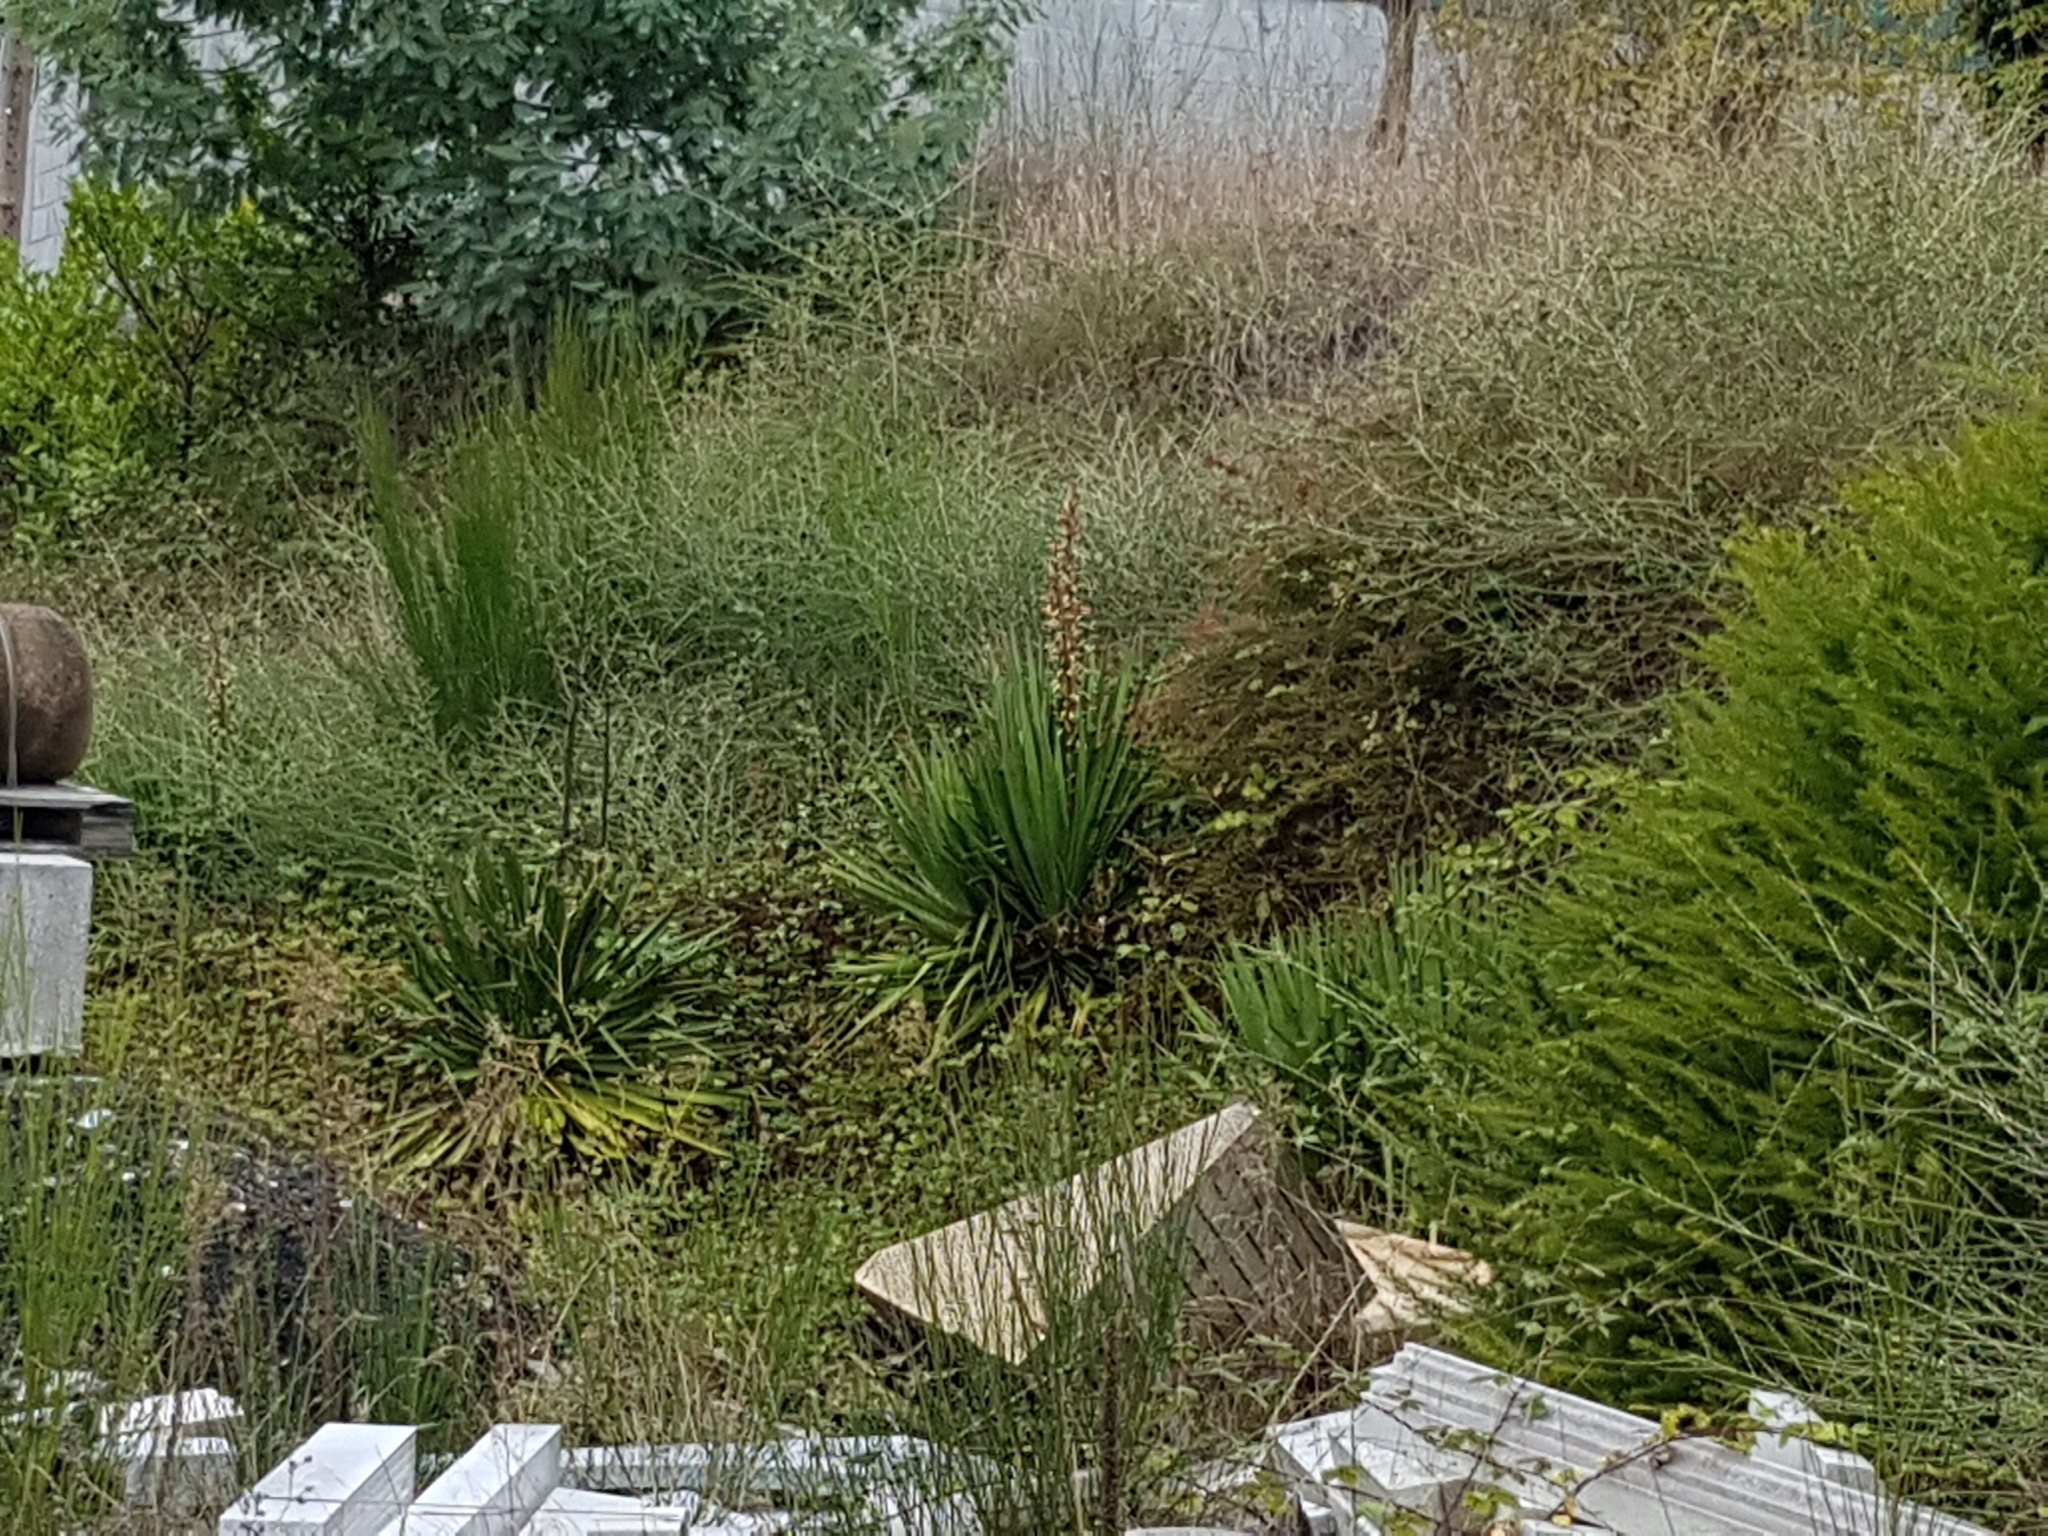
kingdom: Plantae
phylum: Tracheophyta
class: Liliopsida
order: Asparagales
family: Asparagaceae
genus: Yucca
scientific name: Yucca gloriosa
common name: Spanish-dagger
